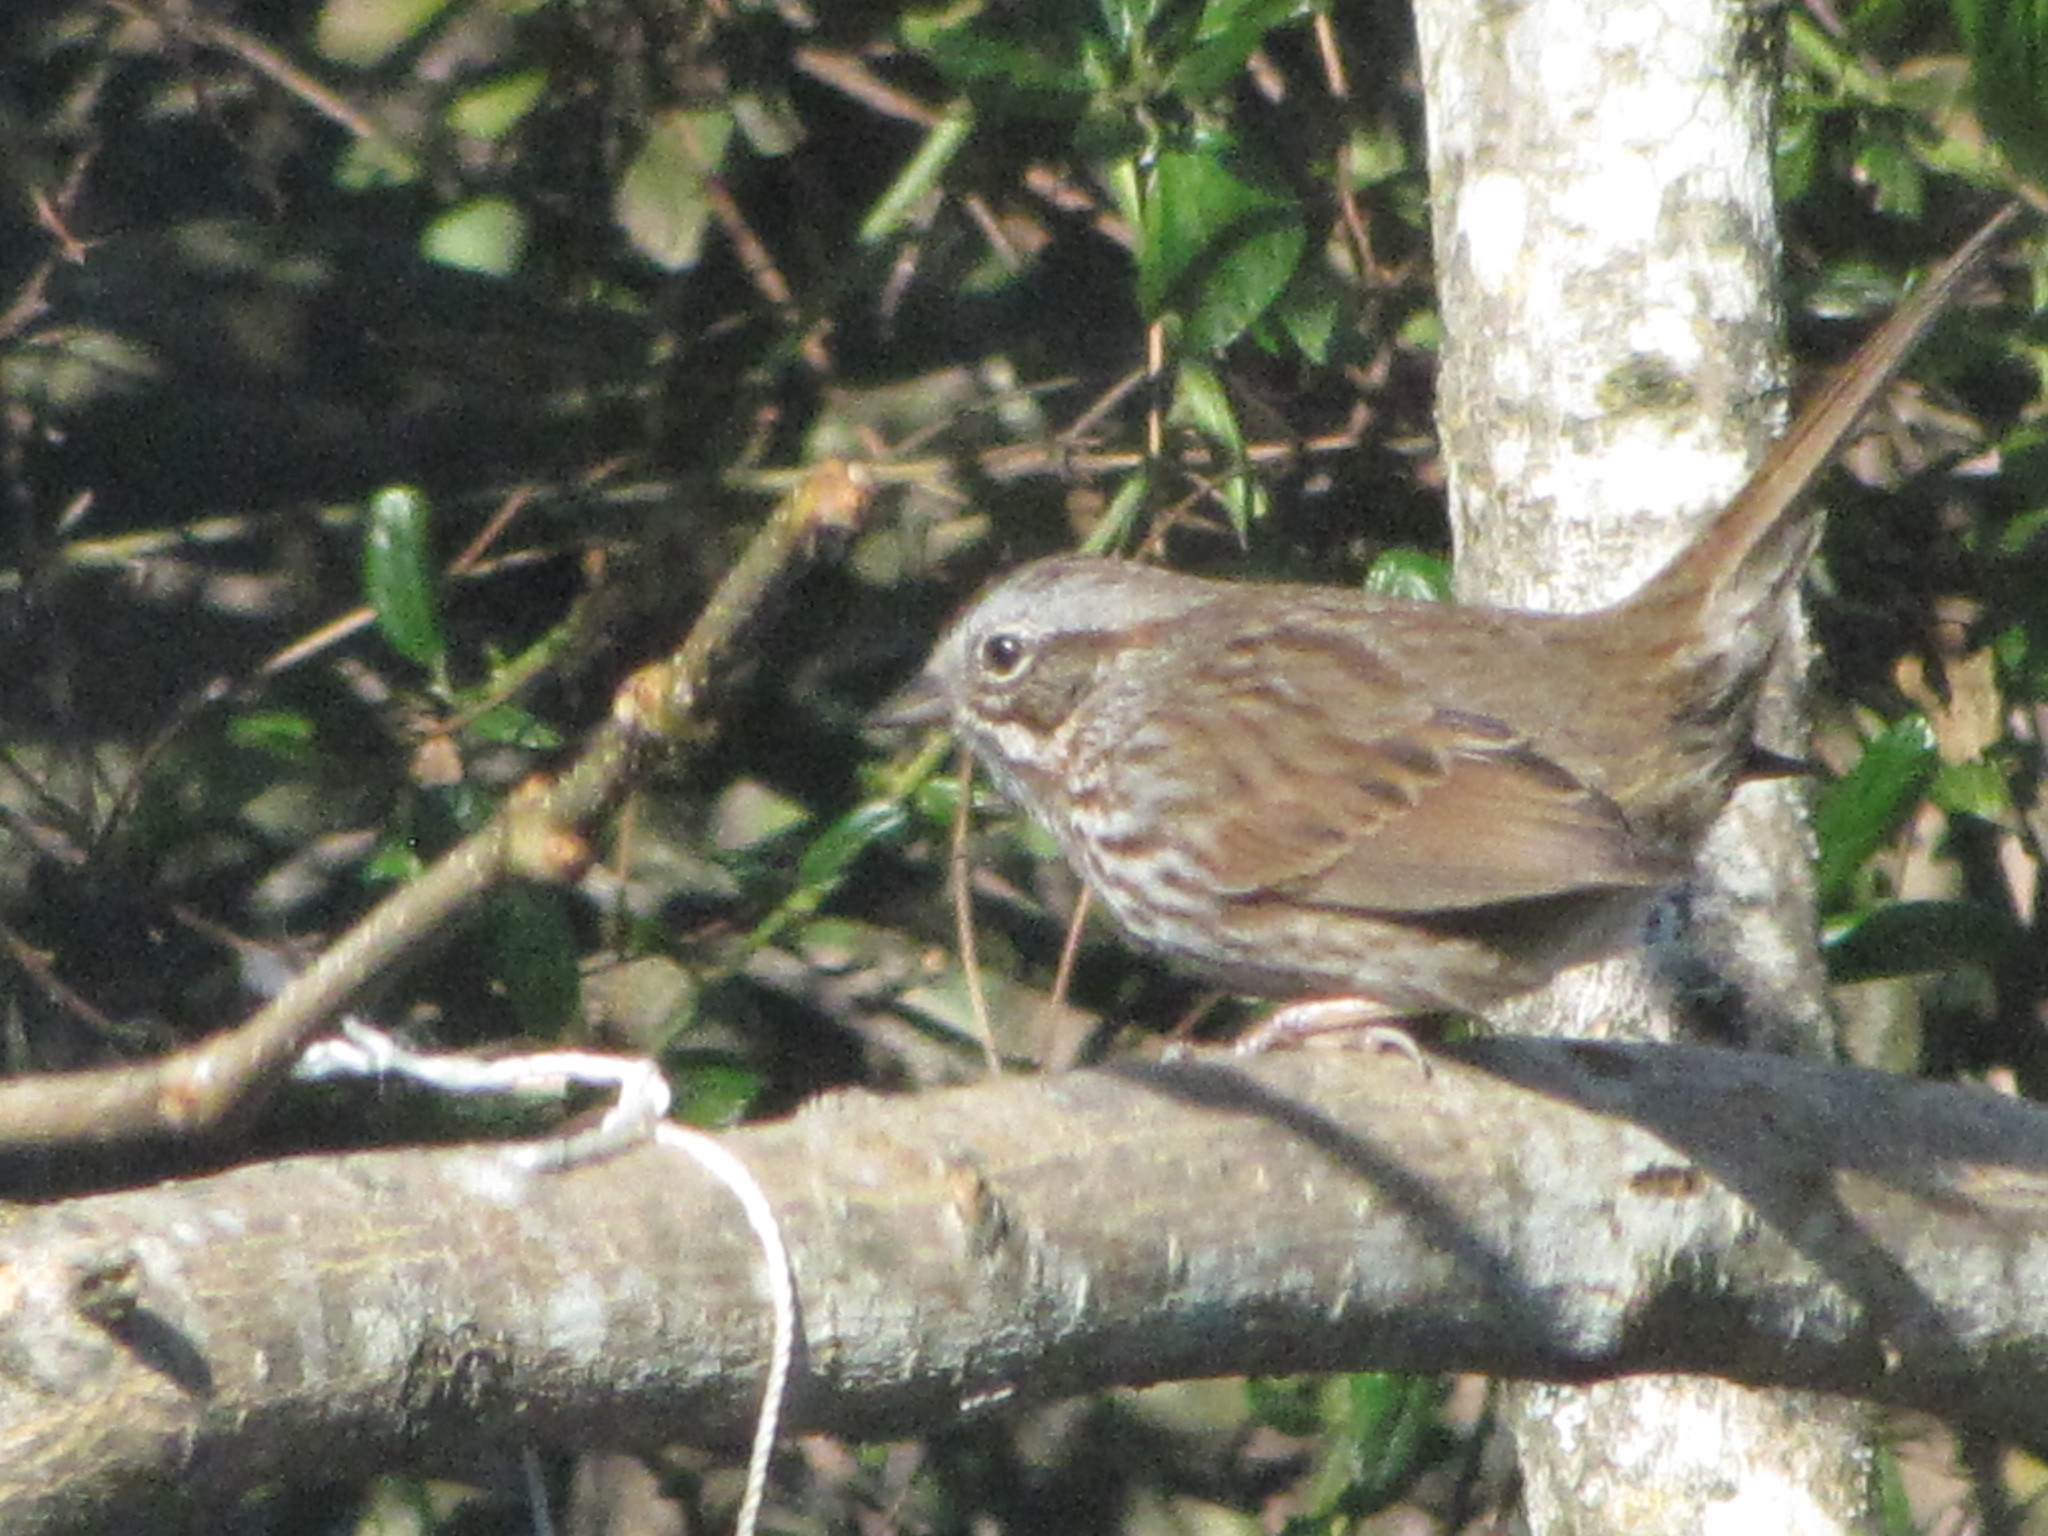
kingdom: Animalia
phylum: Chordata
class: Aves
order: Passeriformes
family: Passerellidae
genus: Melospiza
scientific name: Melospiza melodia
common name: Song sparrow
